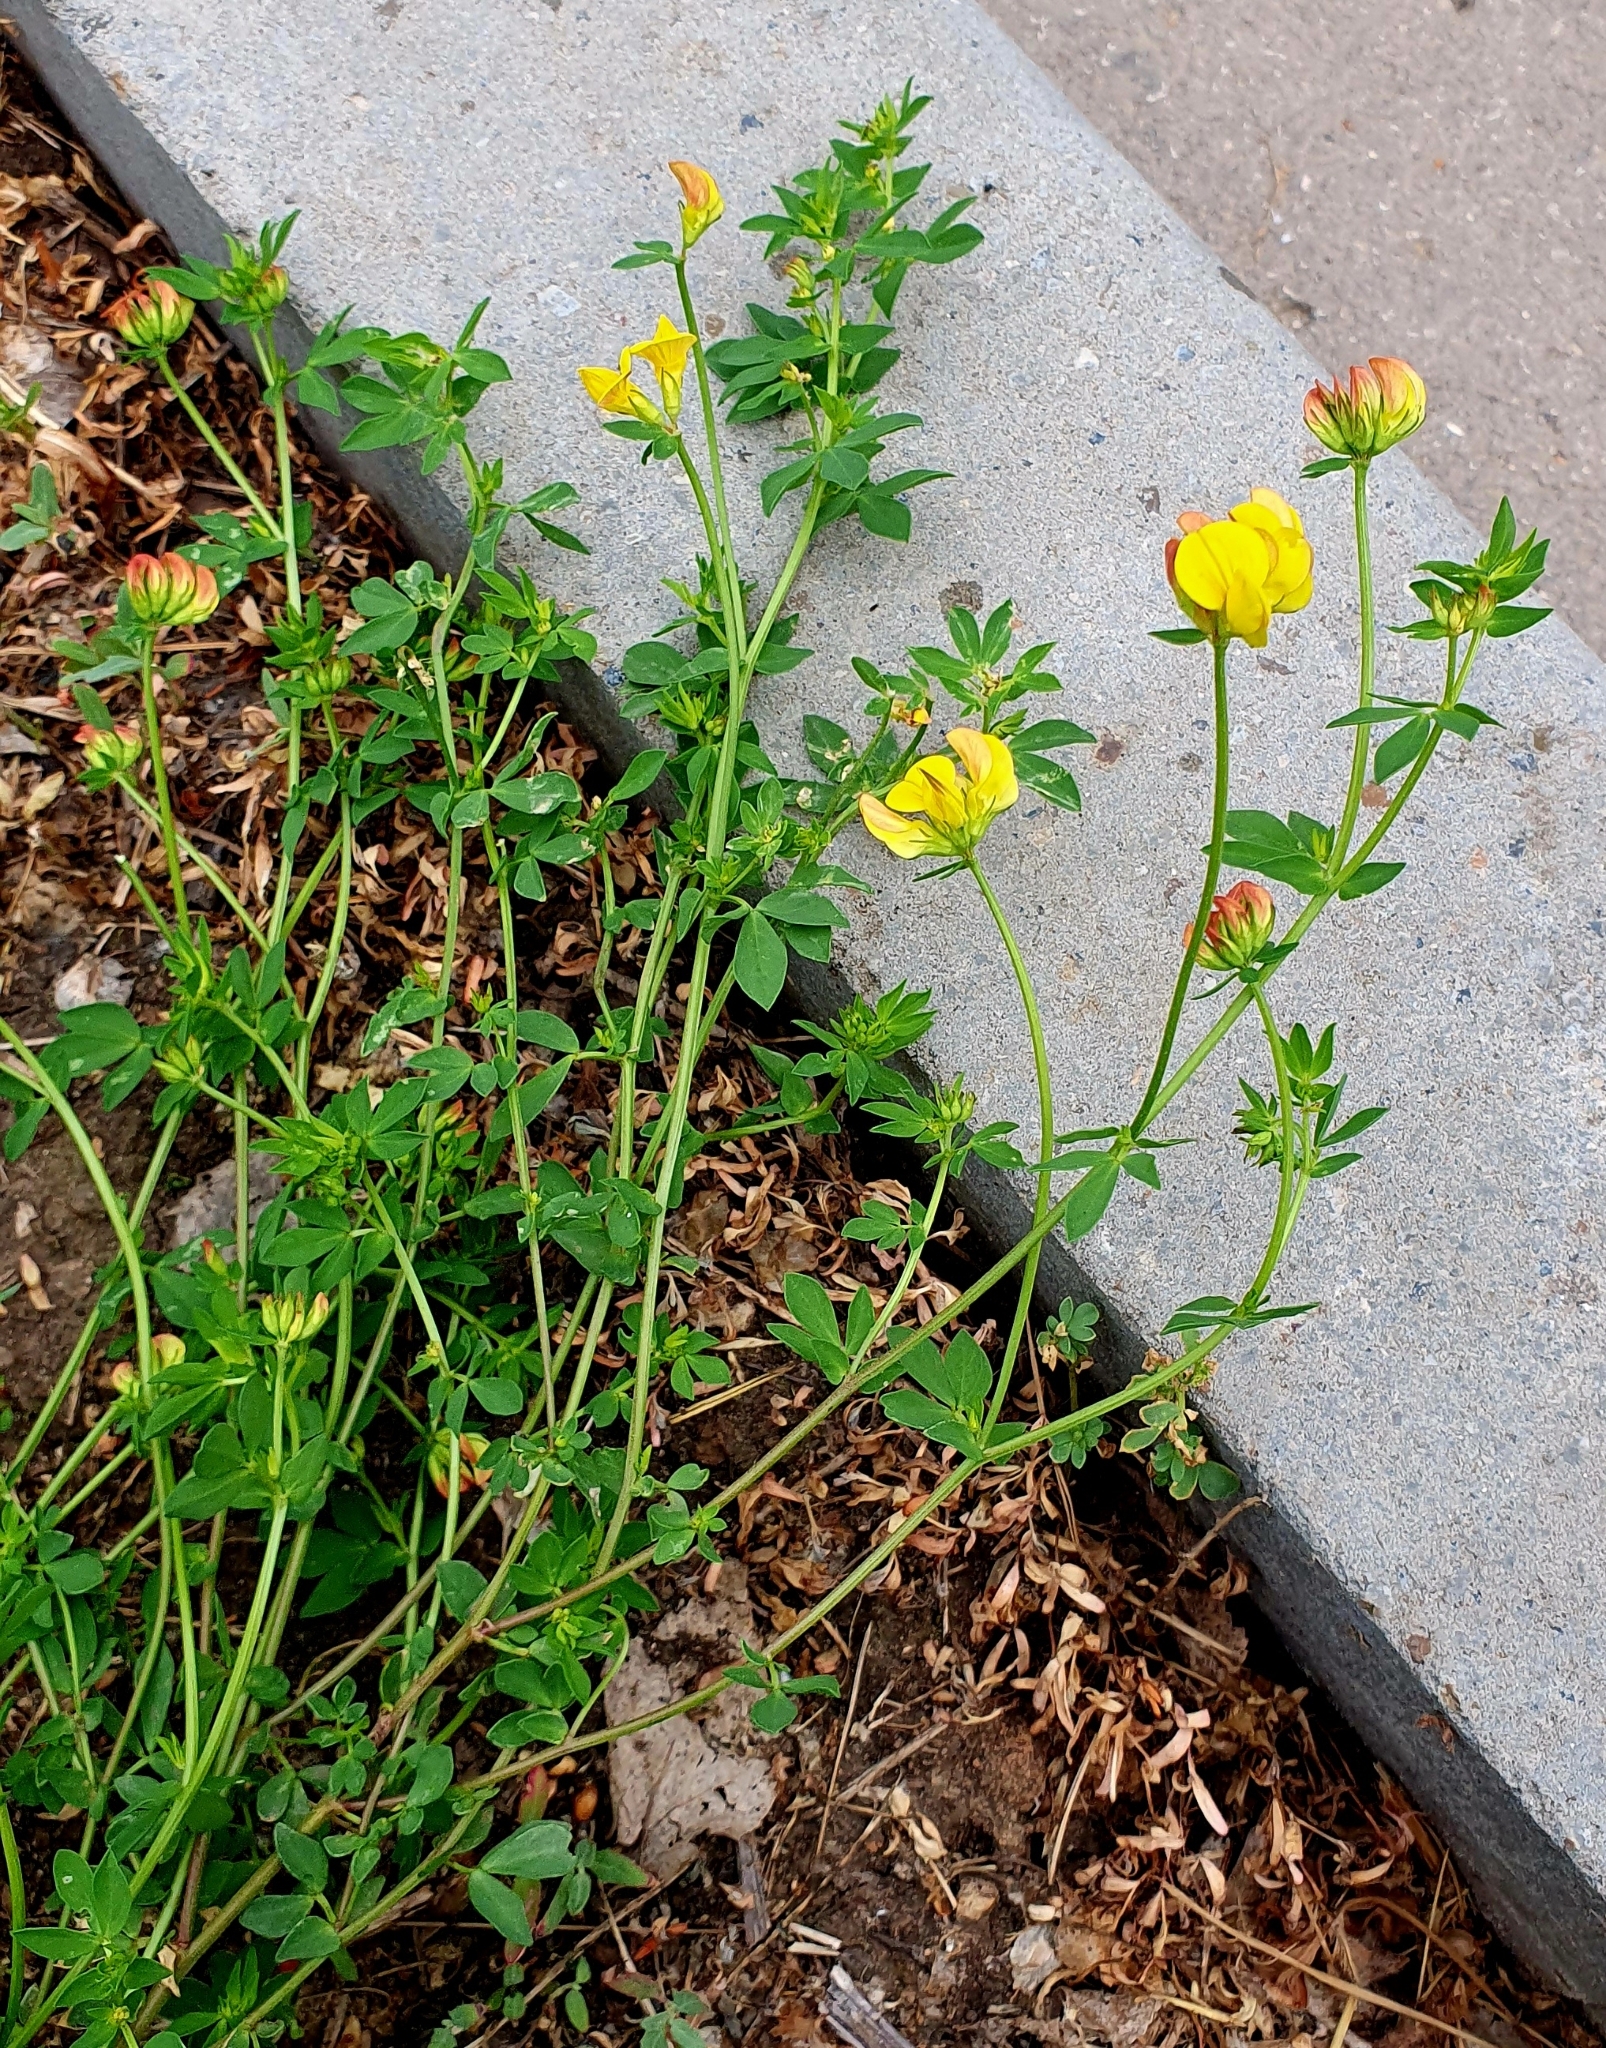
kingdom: Plantae
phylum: Tracheophyta
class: Magnoliopsida
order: Fabales
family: Fabaceae
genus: Lotus
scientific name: Lotus corniculatus
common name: Common bird's-foot-trefoil
